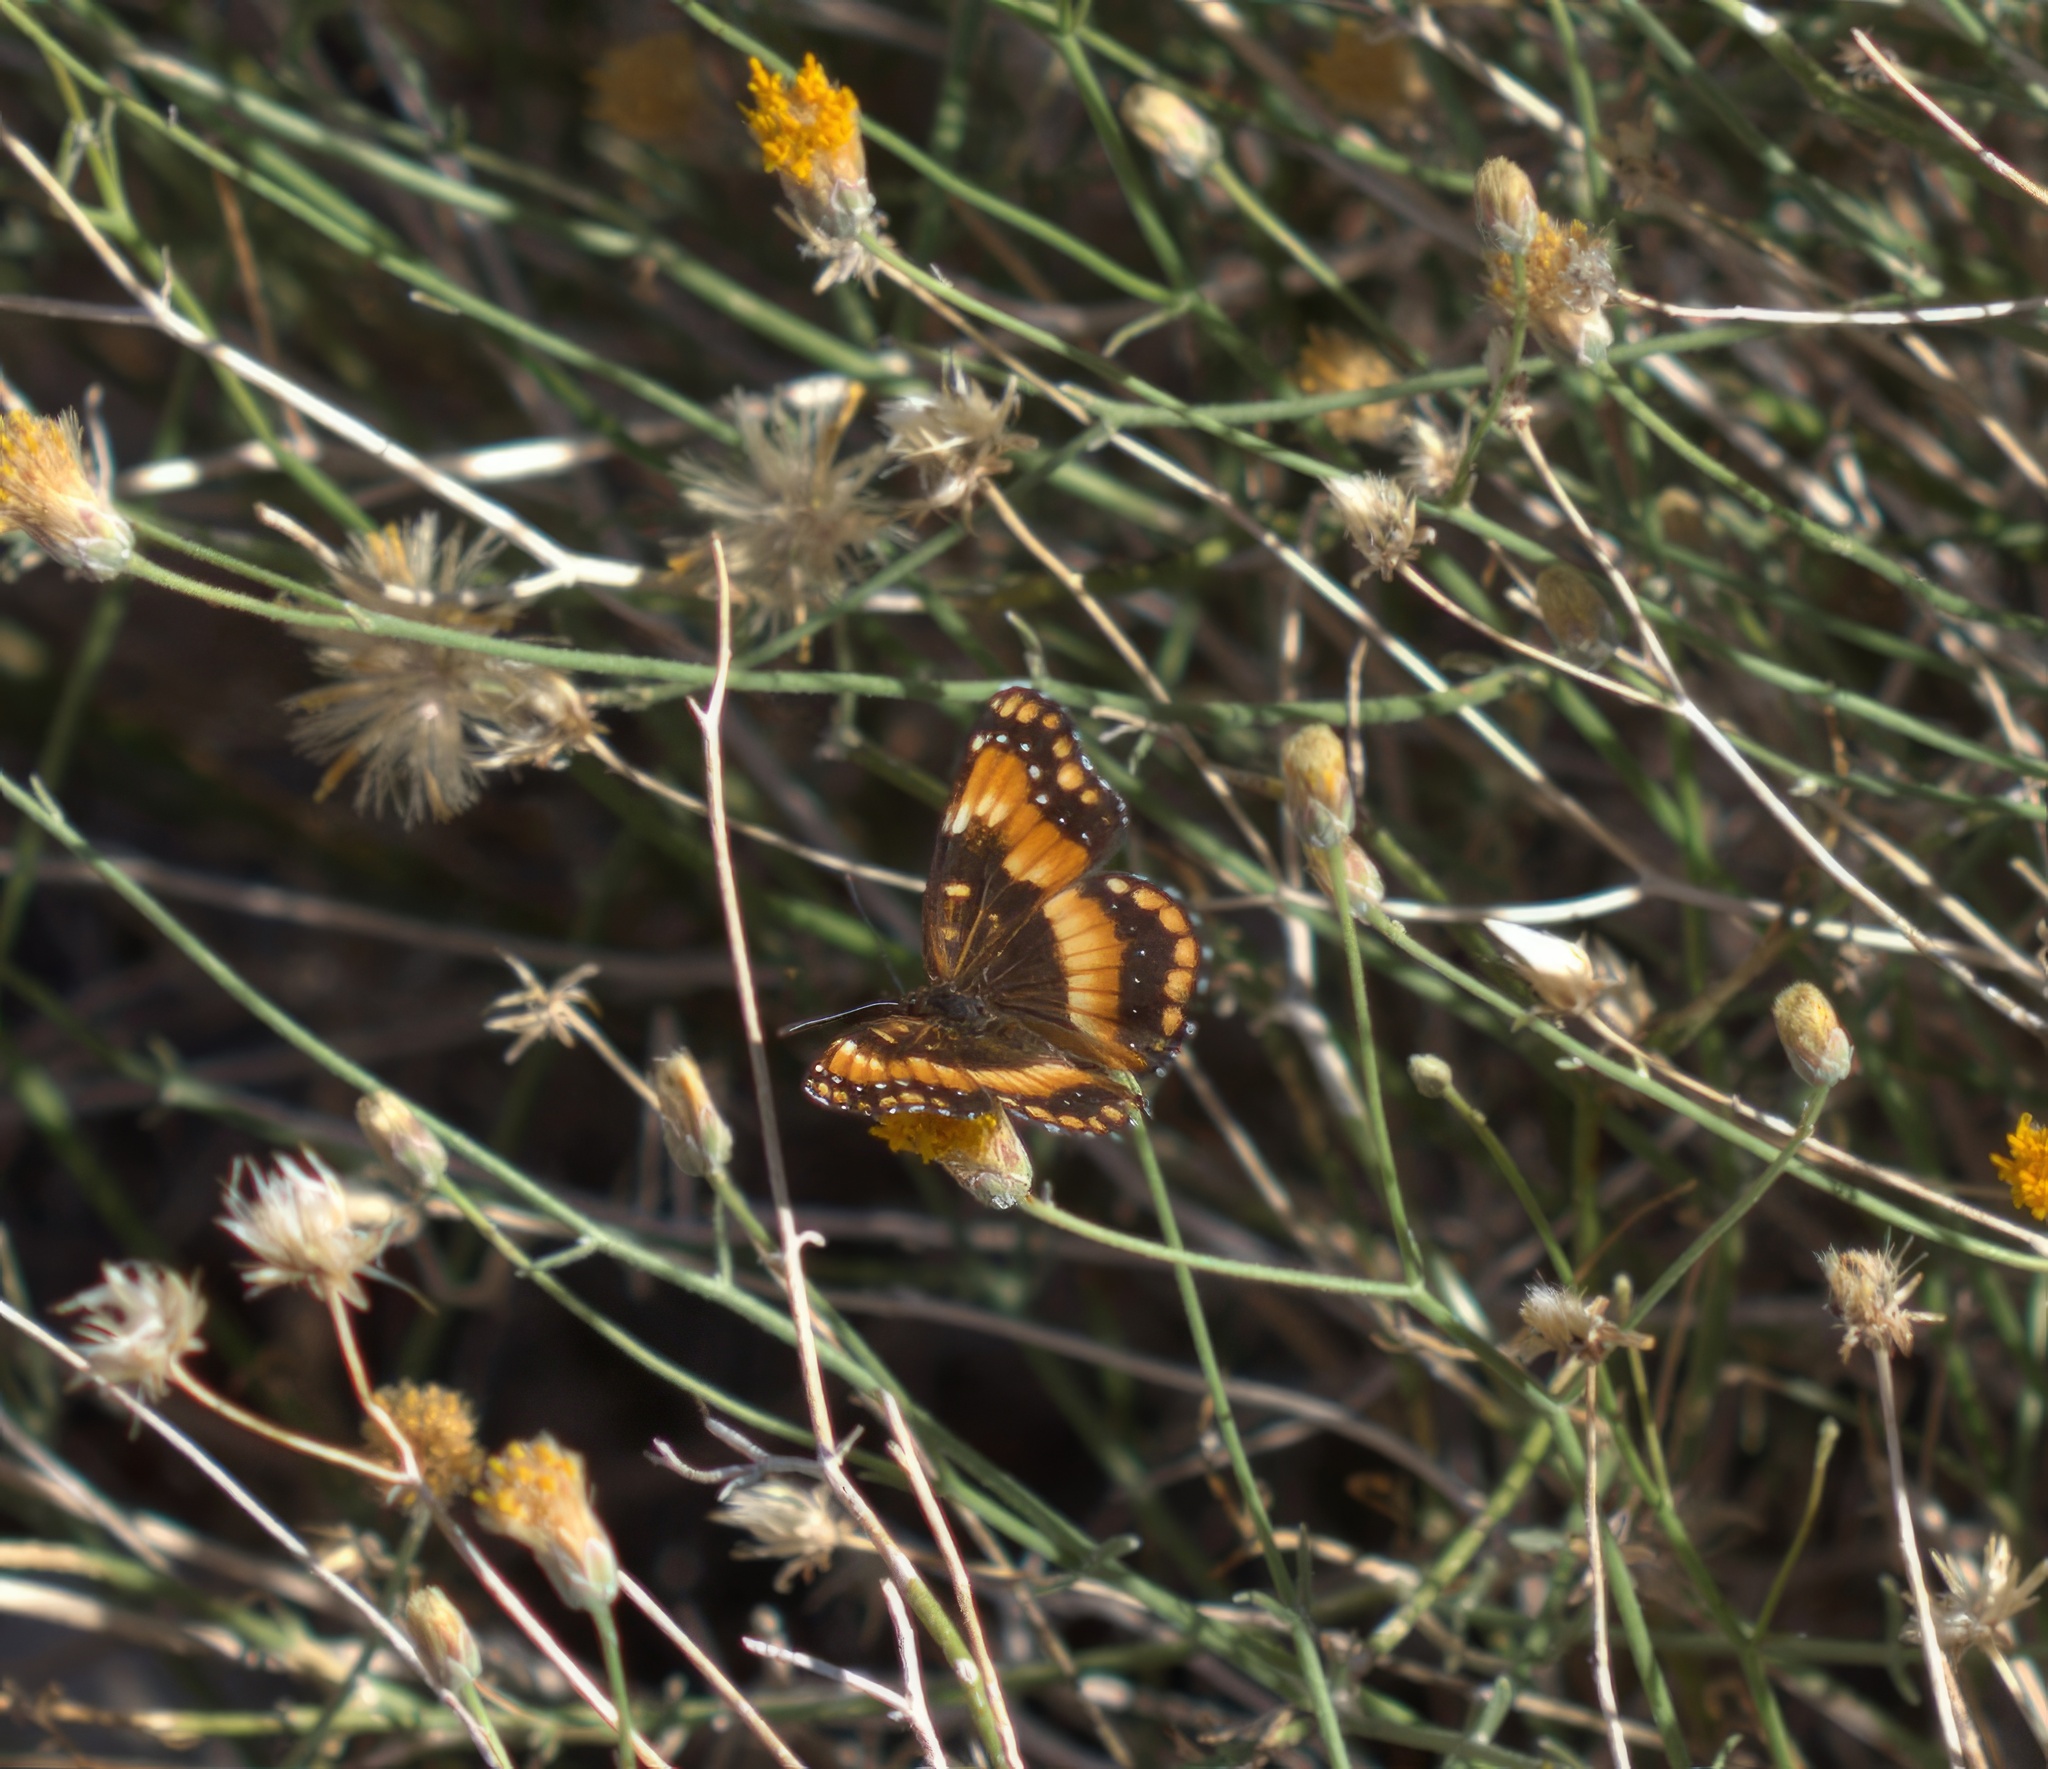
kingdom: Animalia
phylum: Arthropoda
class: Insecta
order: Lepidoptera
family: Nymphalidae
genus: Chlosyne
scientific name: Chlosyne californica
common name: California patch
